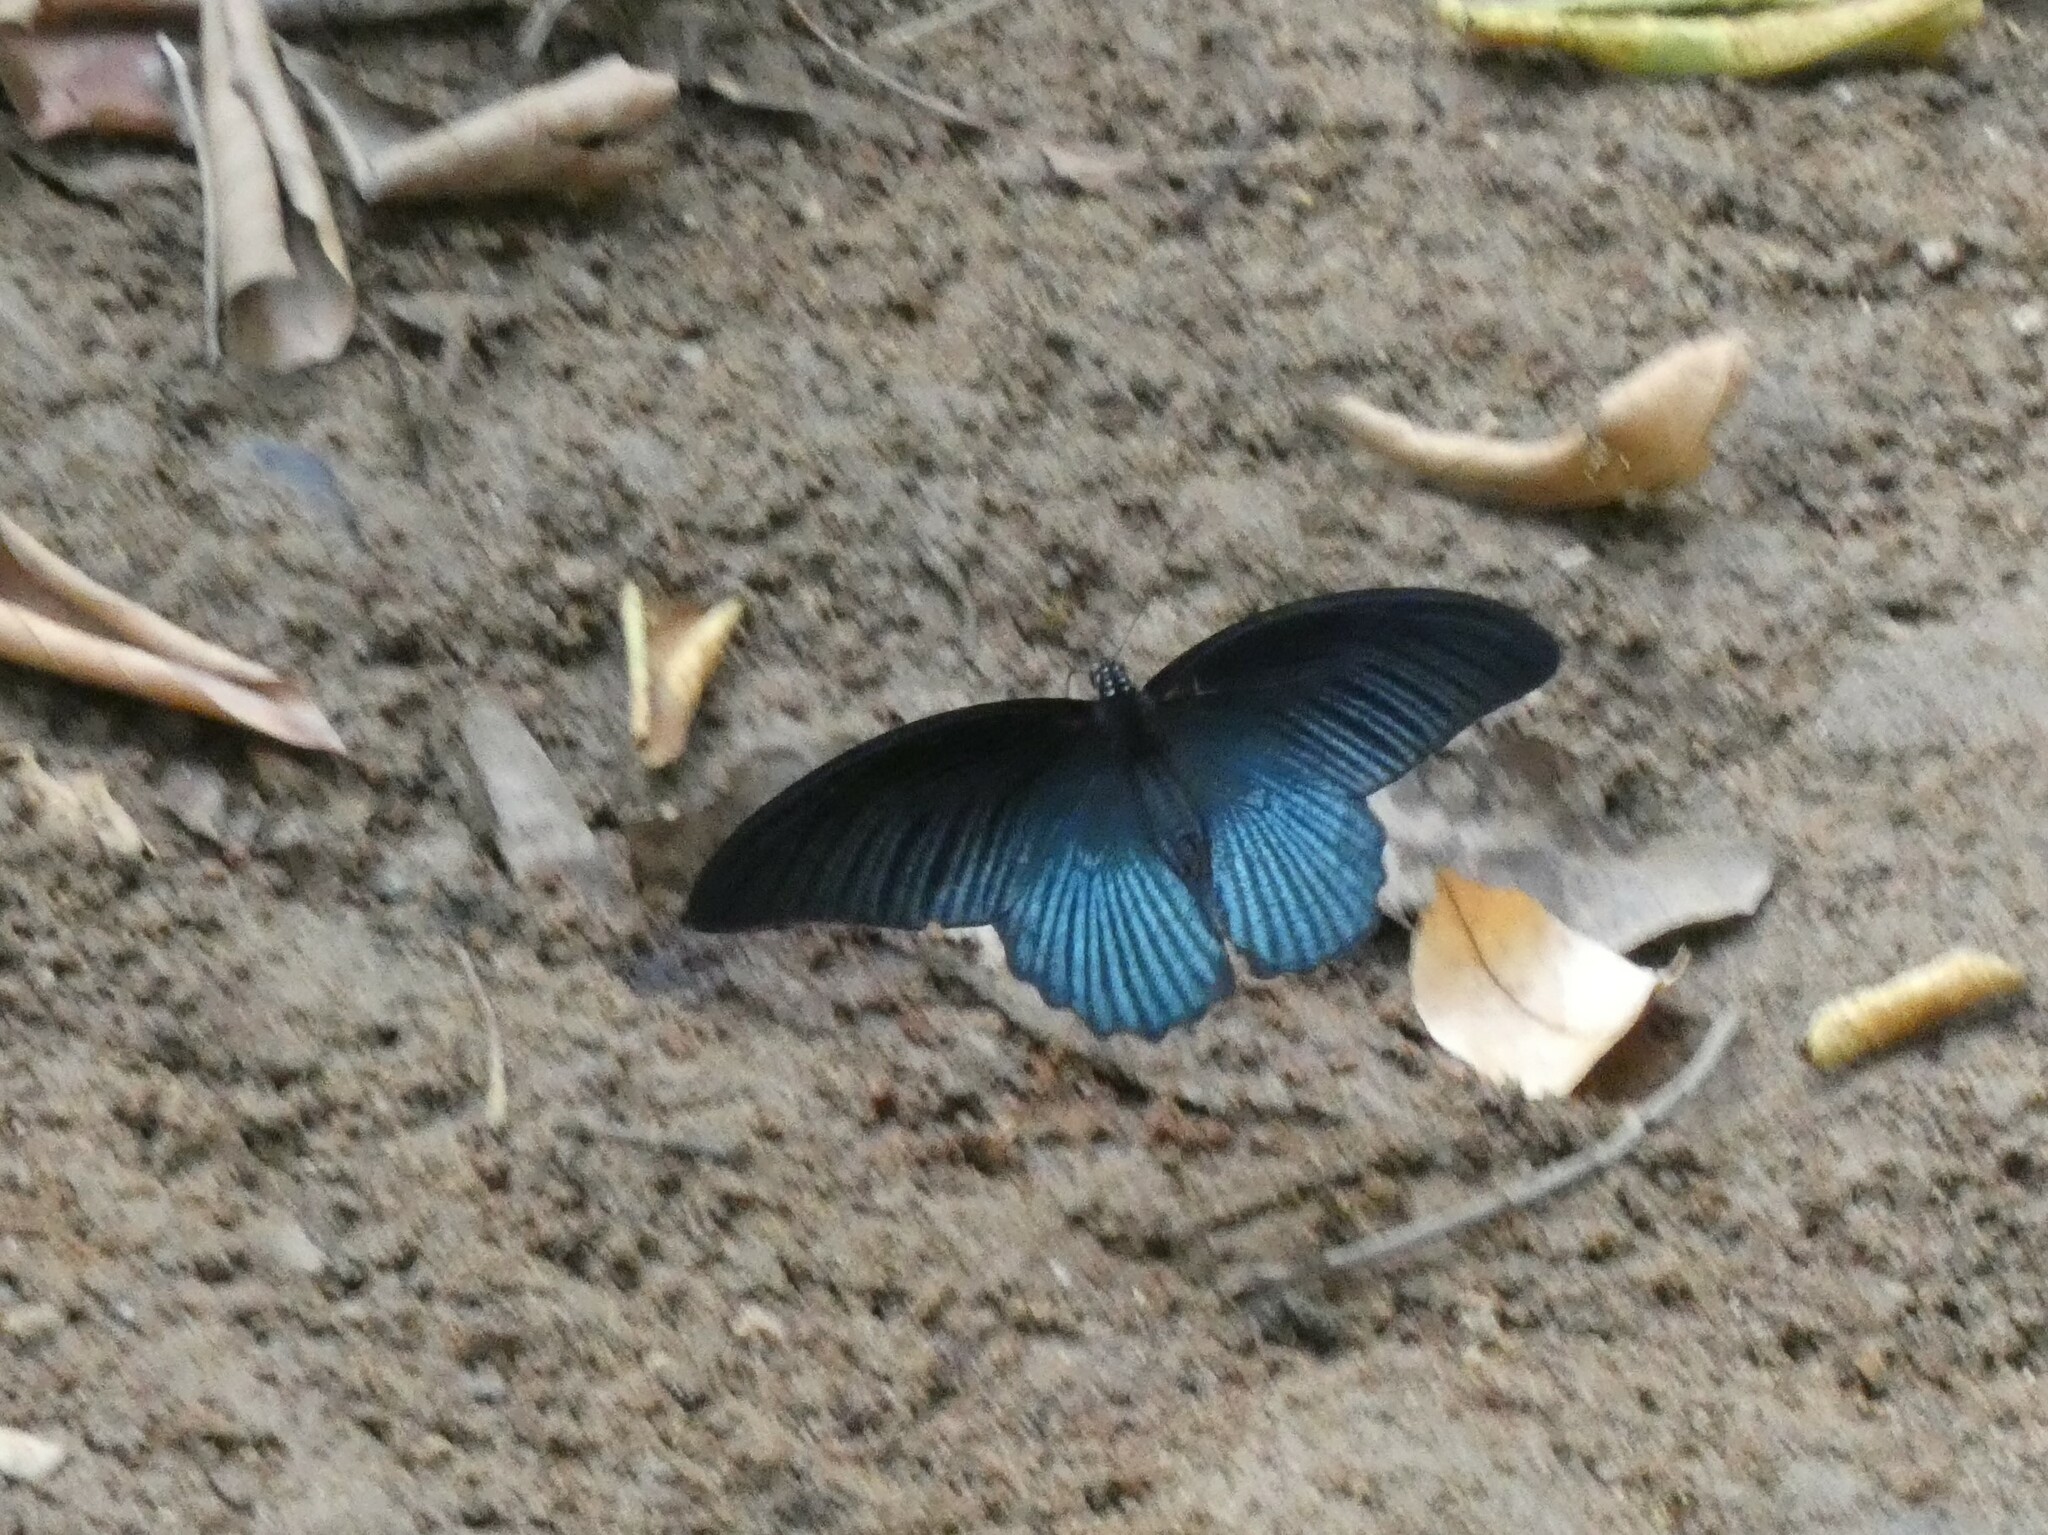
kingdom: Animalia
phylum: Arthropoda
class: Insecta
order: Lepidoptera
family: Papilionidae
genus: Papilio
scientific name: Papilio memnon
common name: Great mormon
